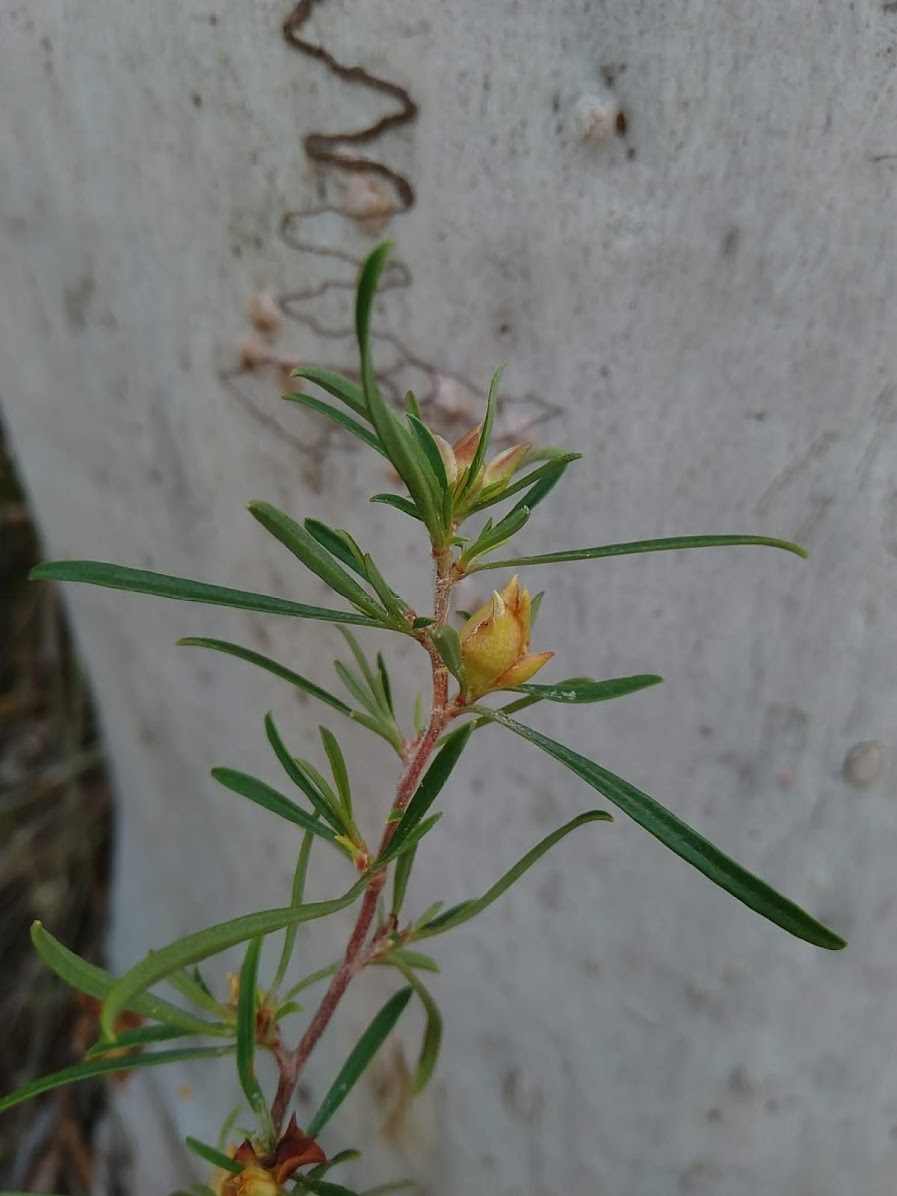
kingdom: Plantae
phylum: Tracheophyta
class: Magnoliopsida
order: Dilleniales
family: Dilleniaceae
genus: Hibbertia
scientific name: Hibbertia linearis
